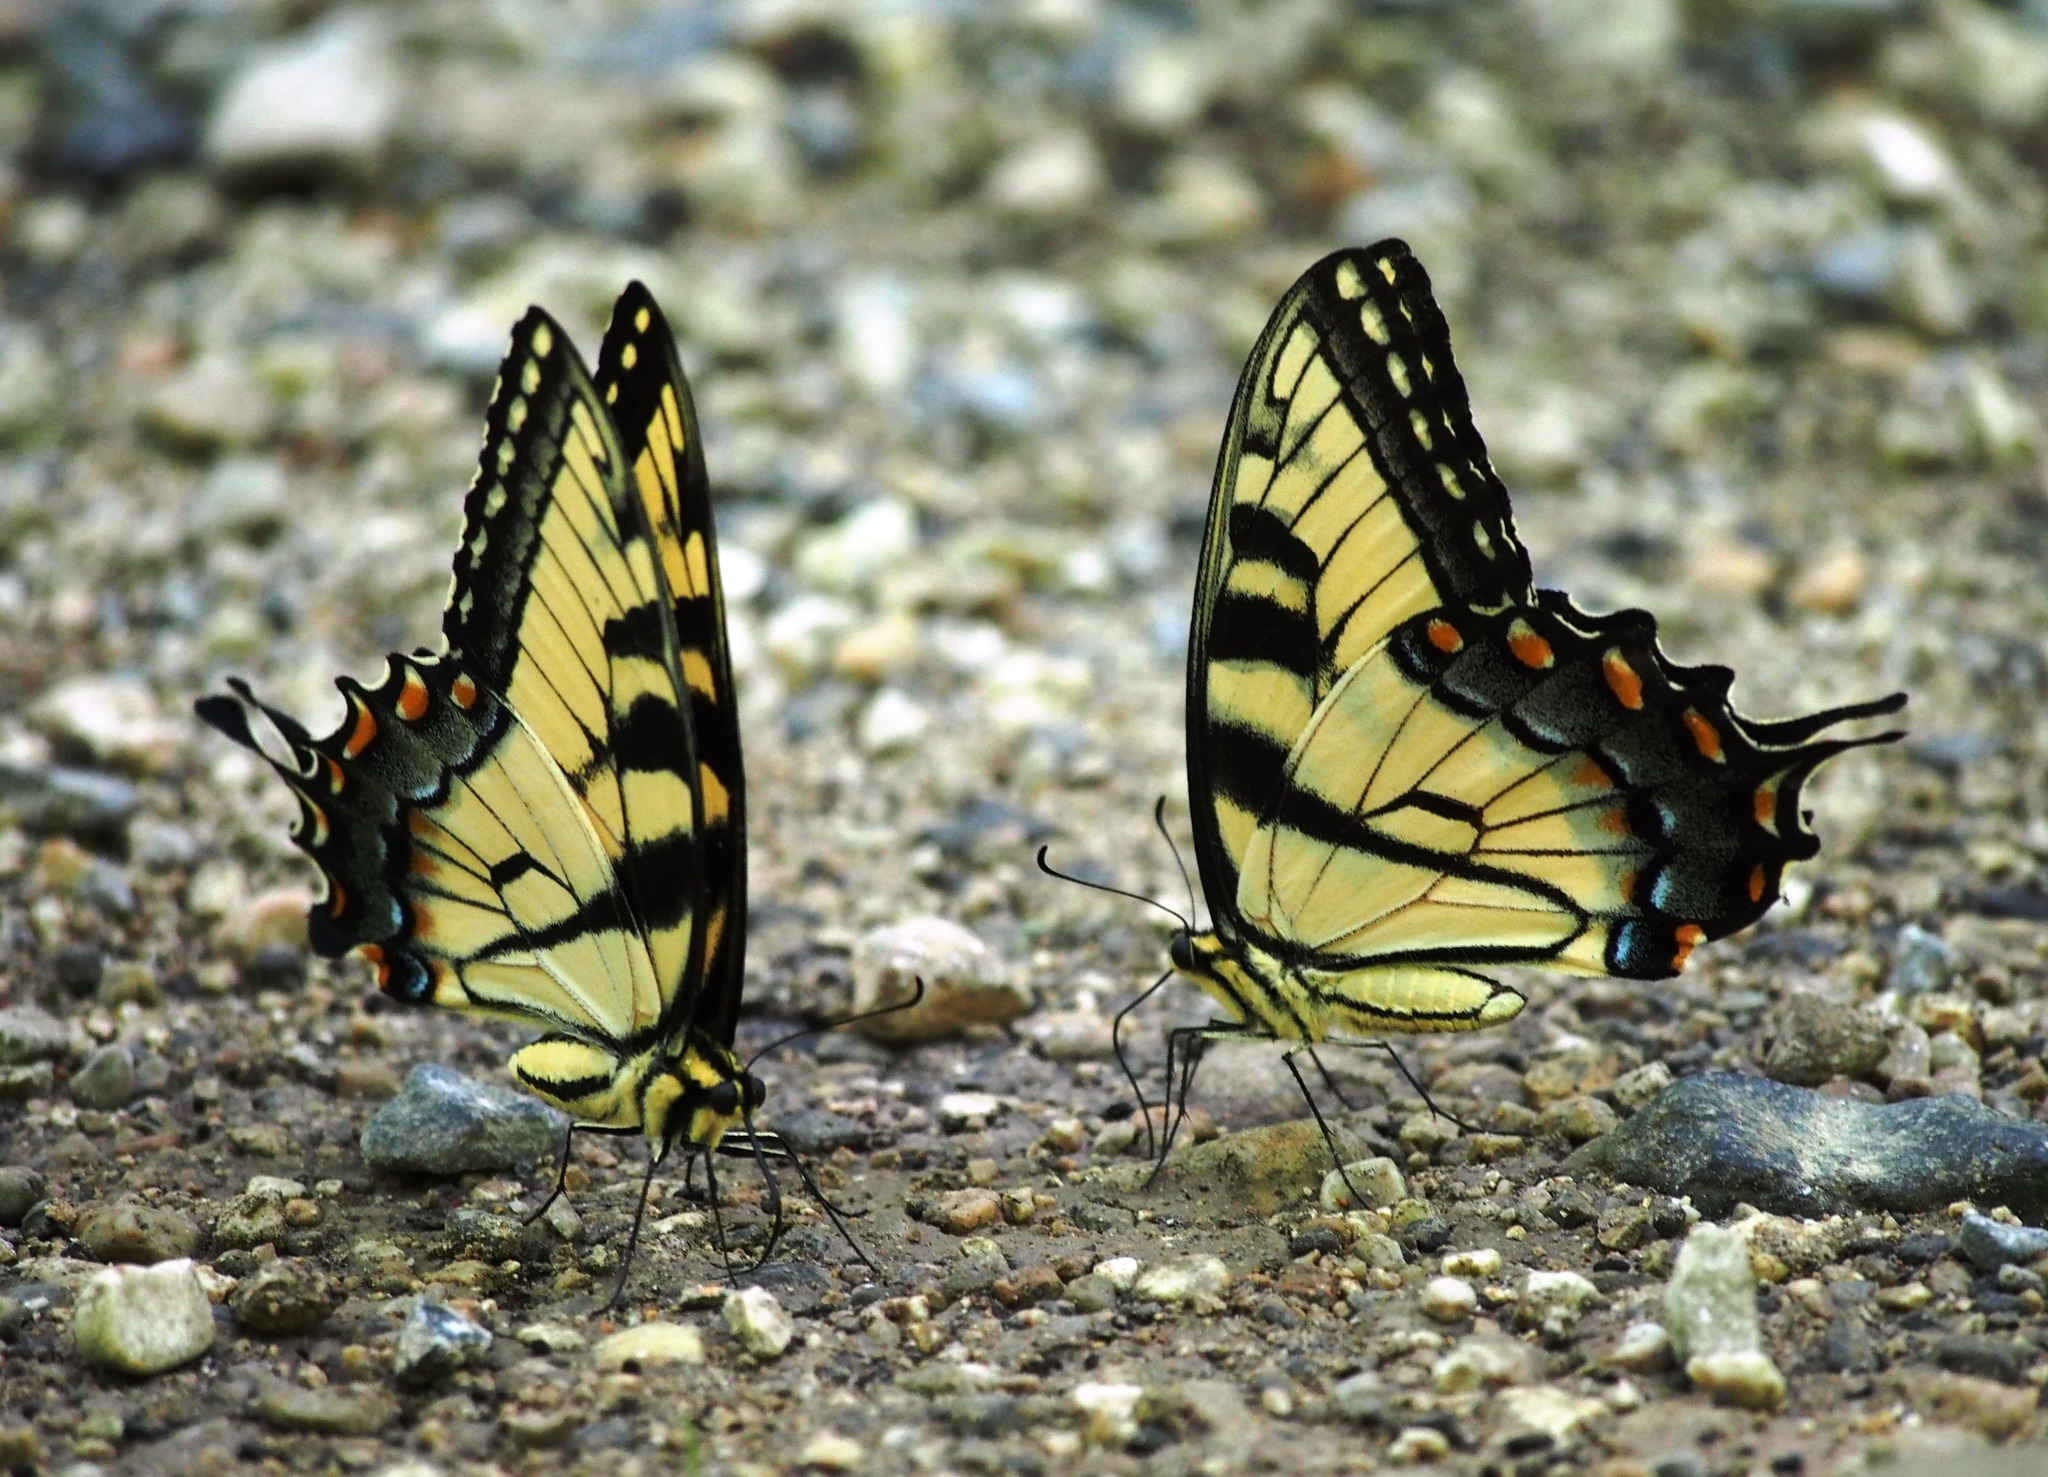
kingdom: Animalia
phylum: Arthropoda
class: Insecta
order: Lepidoptera
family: Papilionidae
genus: Papilio
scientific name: Papilio glaucus
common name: Tiger swallowtail
